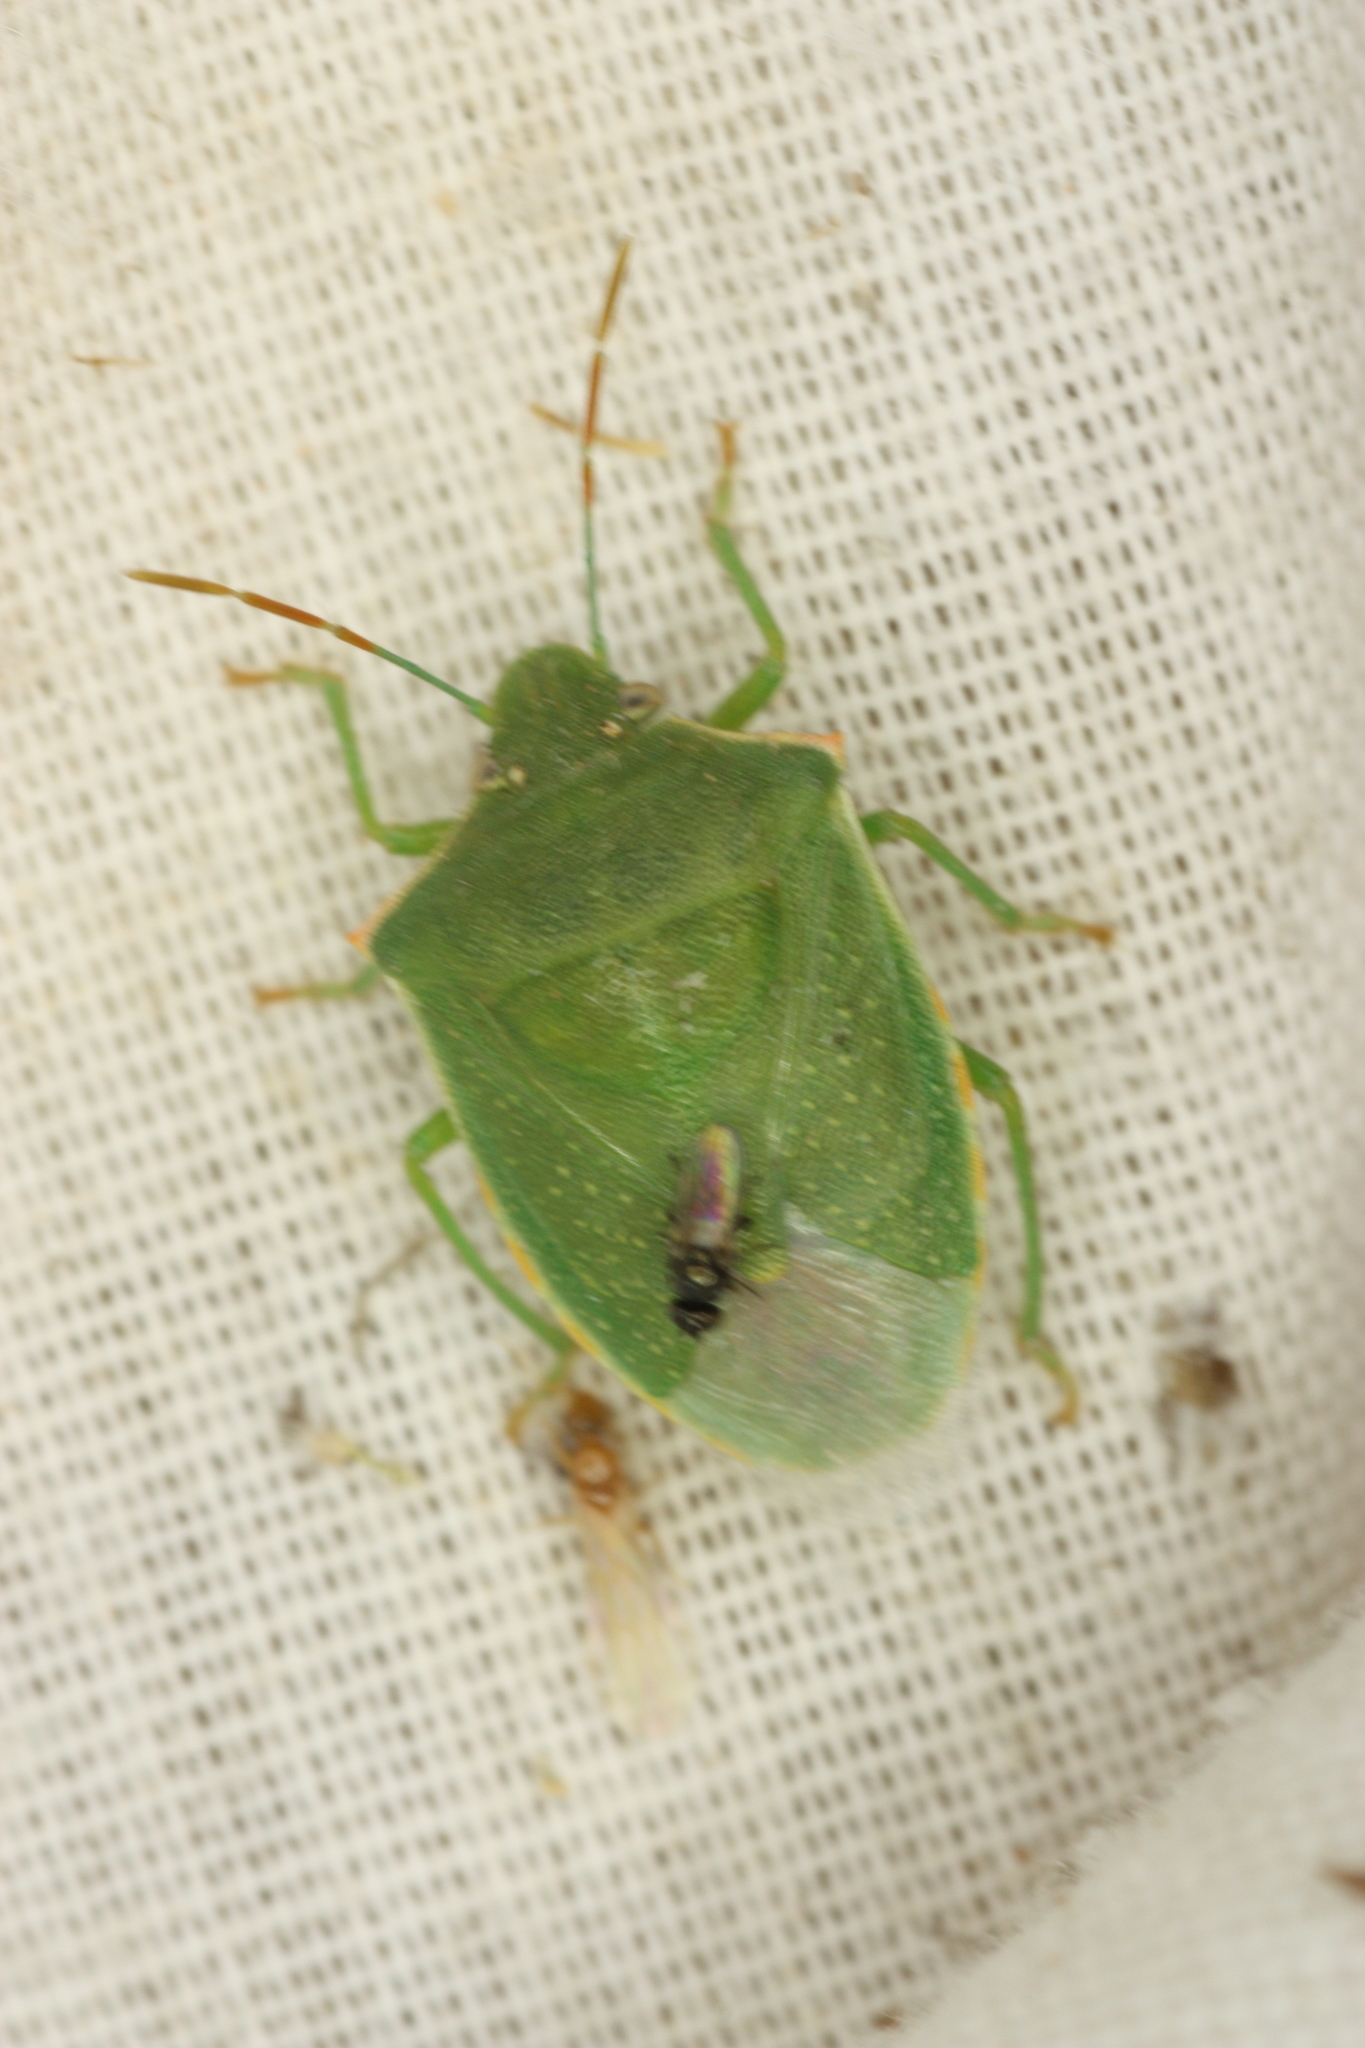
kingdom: Animalia
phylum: Arthropoda
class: Insecta
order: Hemiptera
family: Pentatomidae
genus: Thyanta
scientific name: Thyanta accerra
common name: Stink bug
